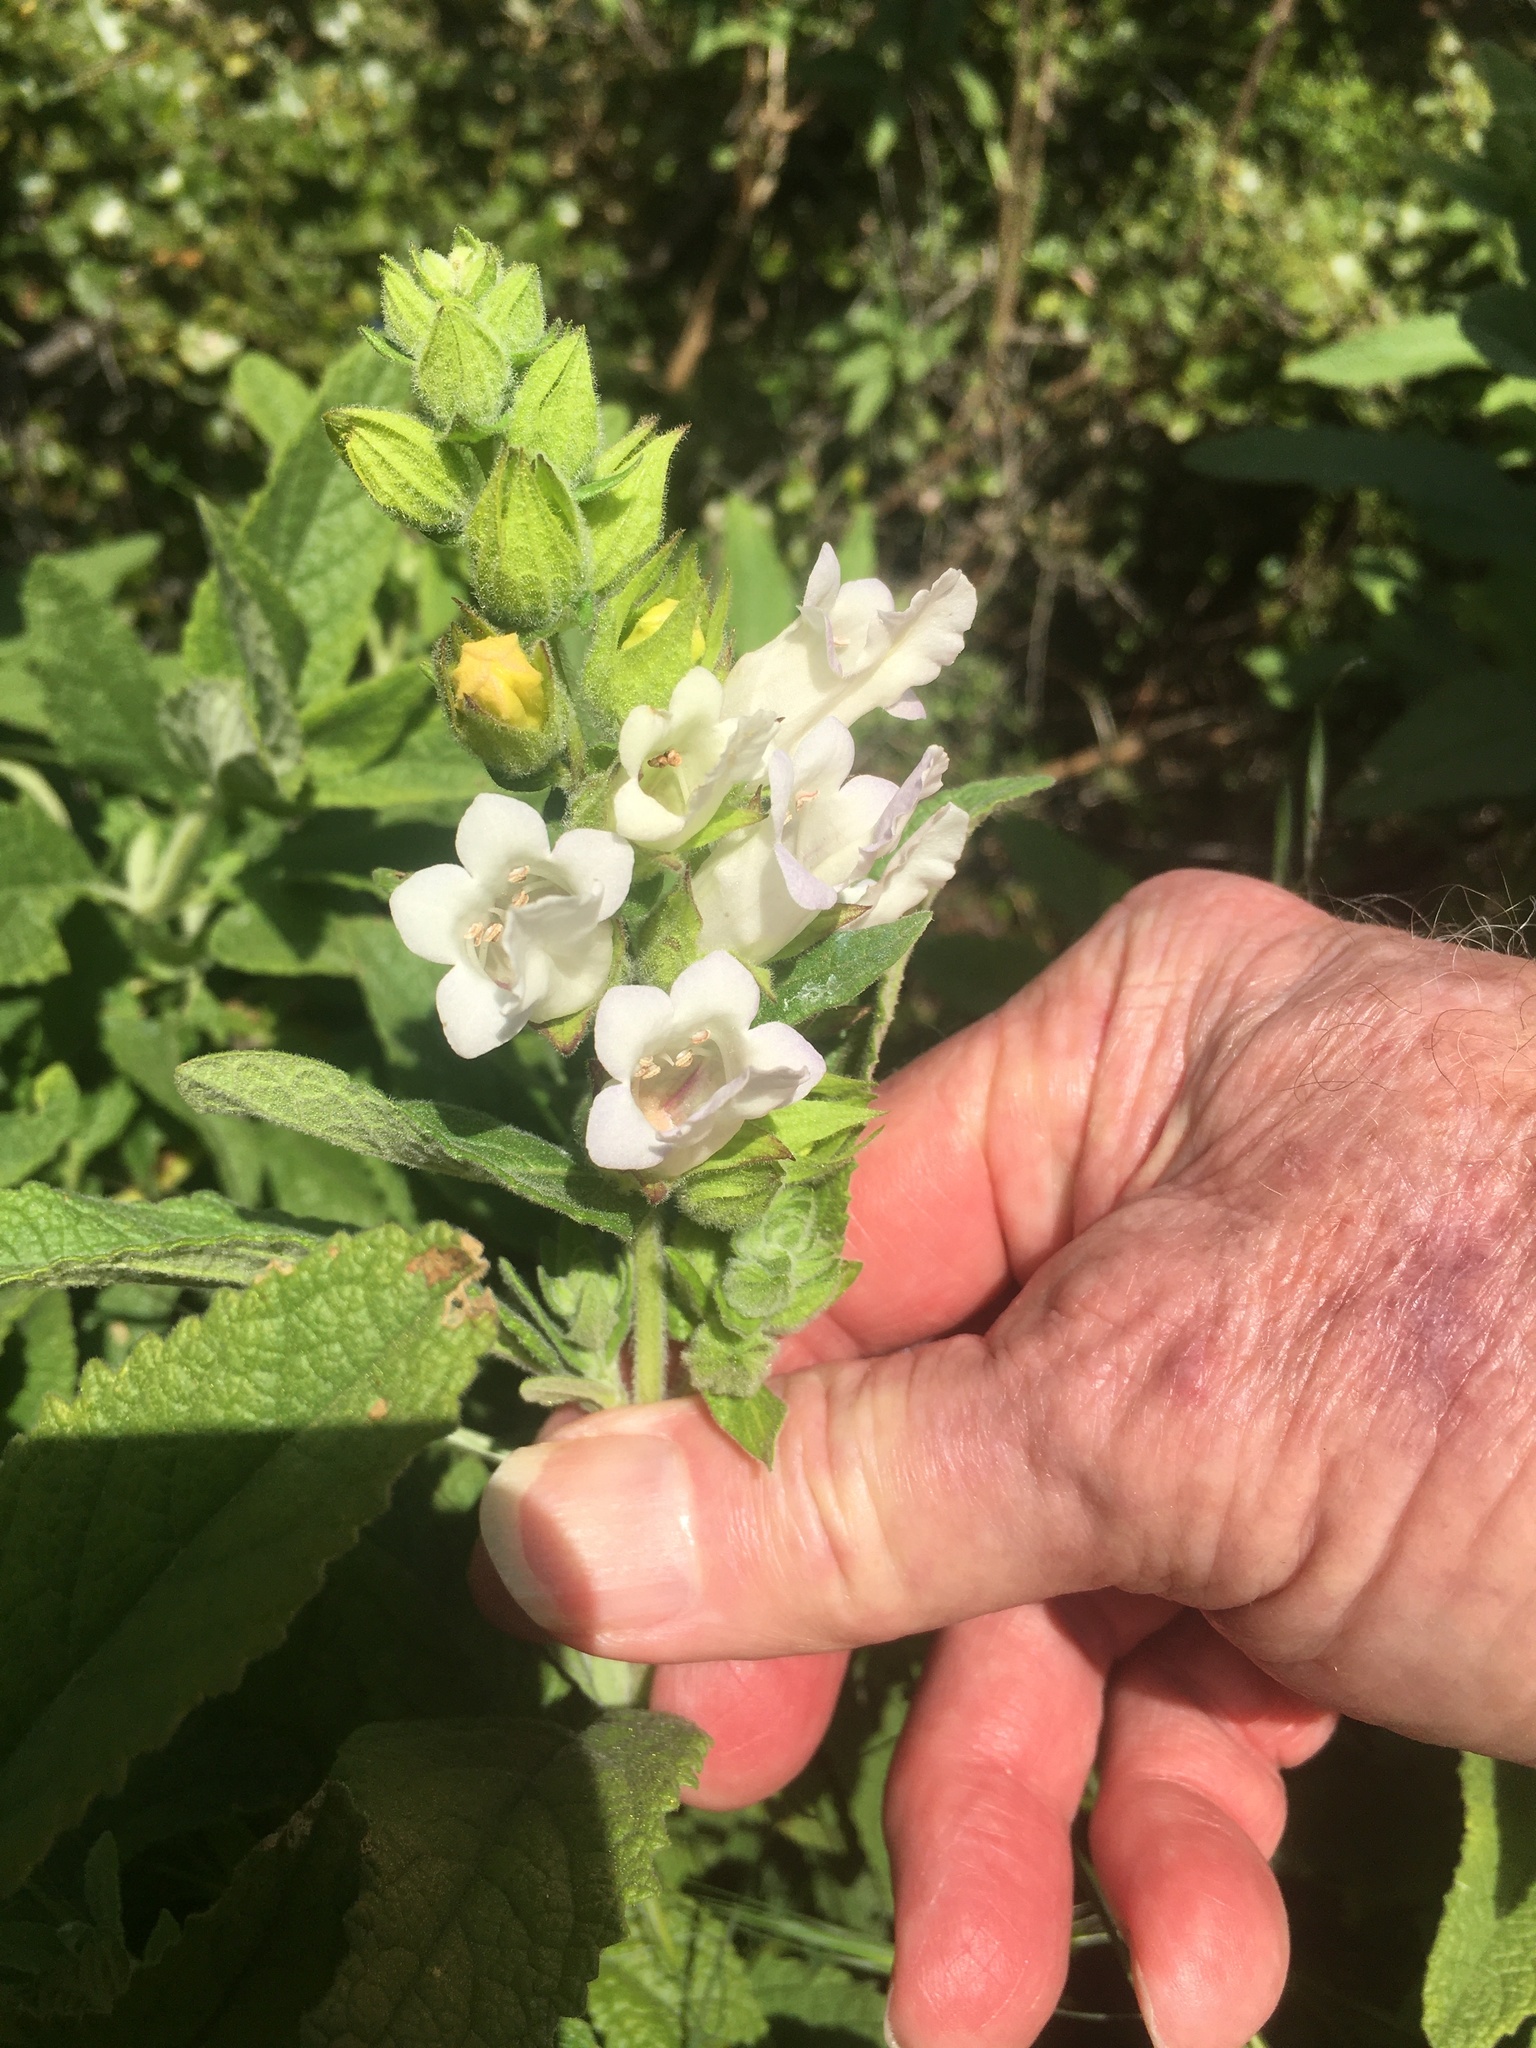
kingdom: Plantae
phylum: Tracheophyta
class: Magnoliopsida
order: Lamiales
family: Lamiaceae
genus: Lepechinia
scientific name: Lepechinia calycina
